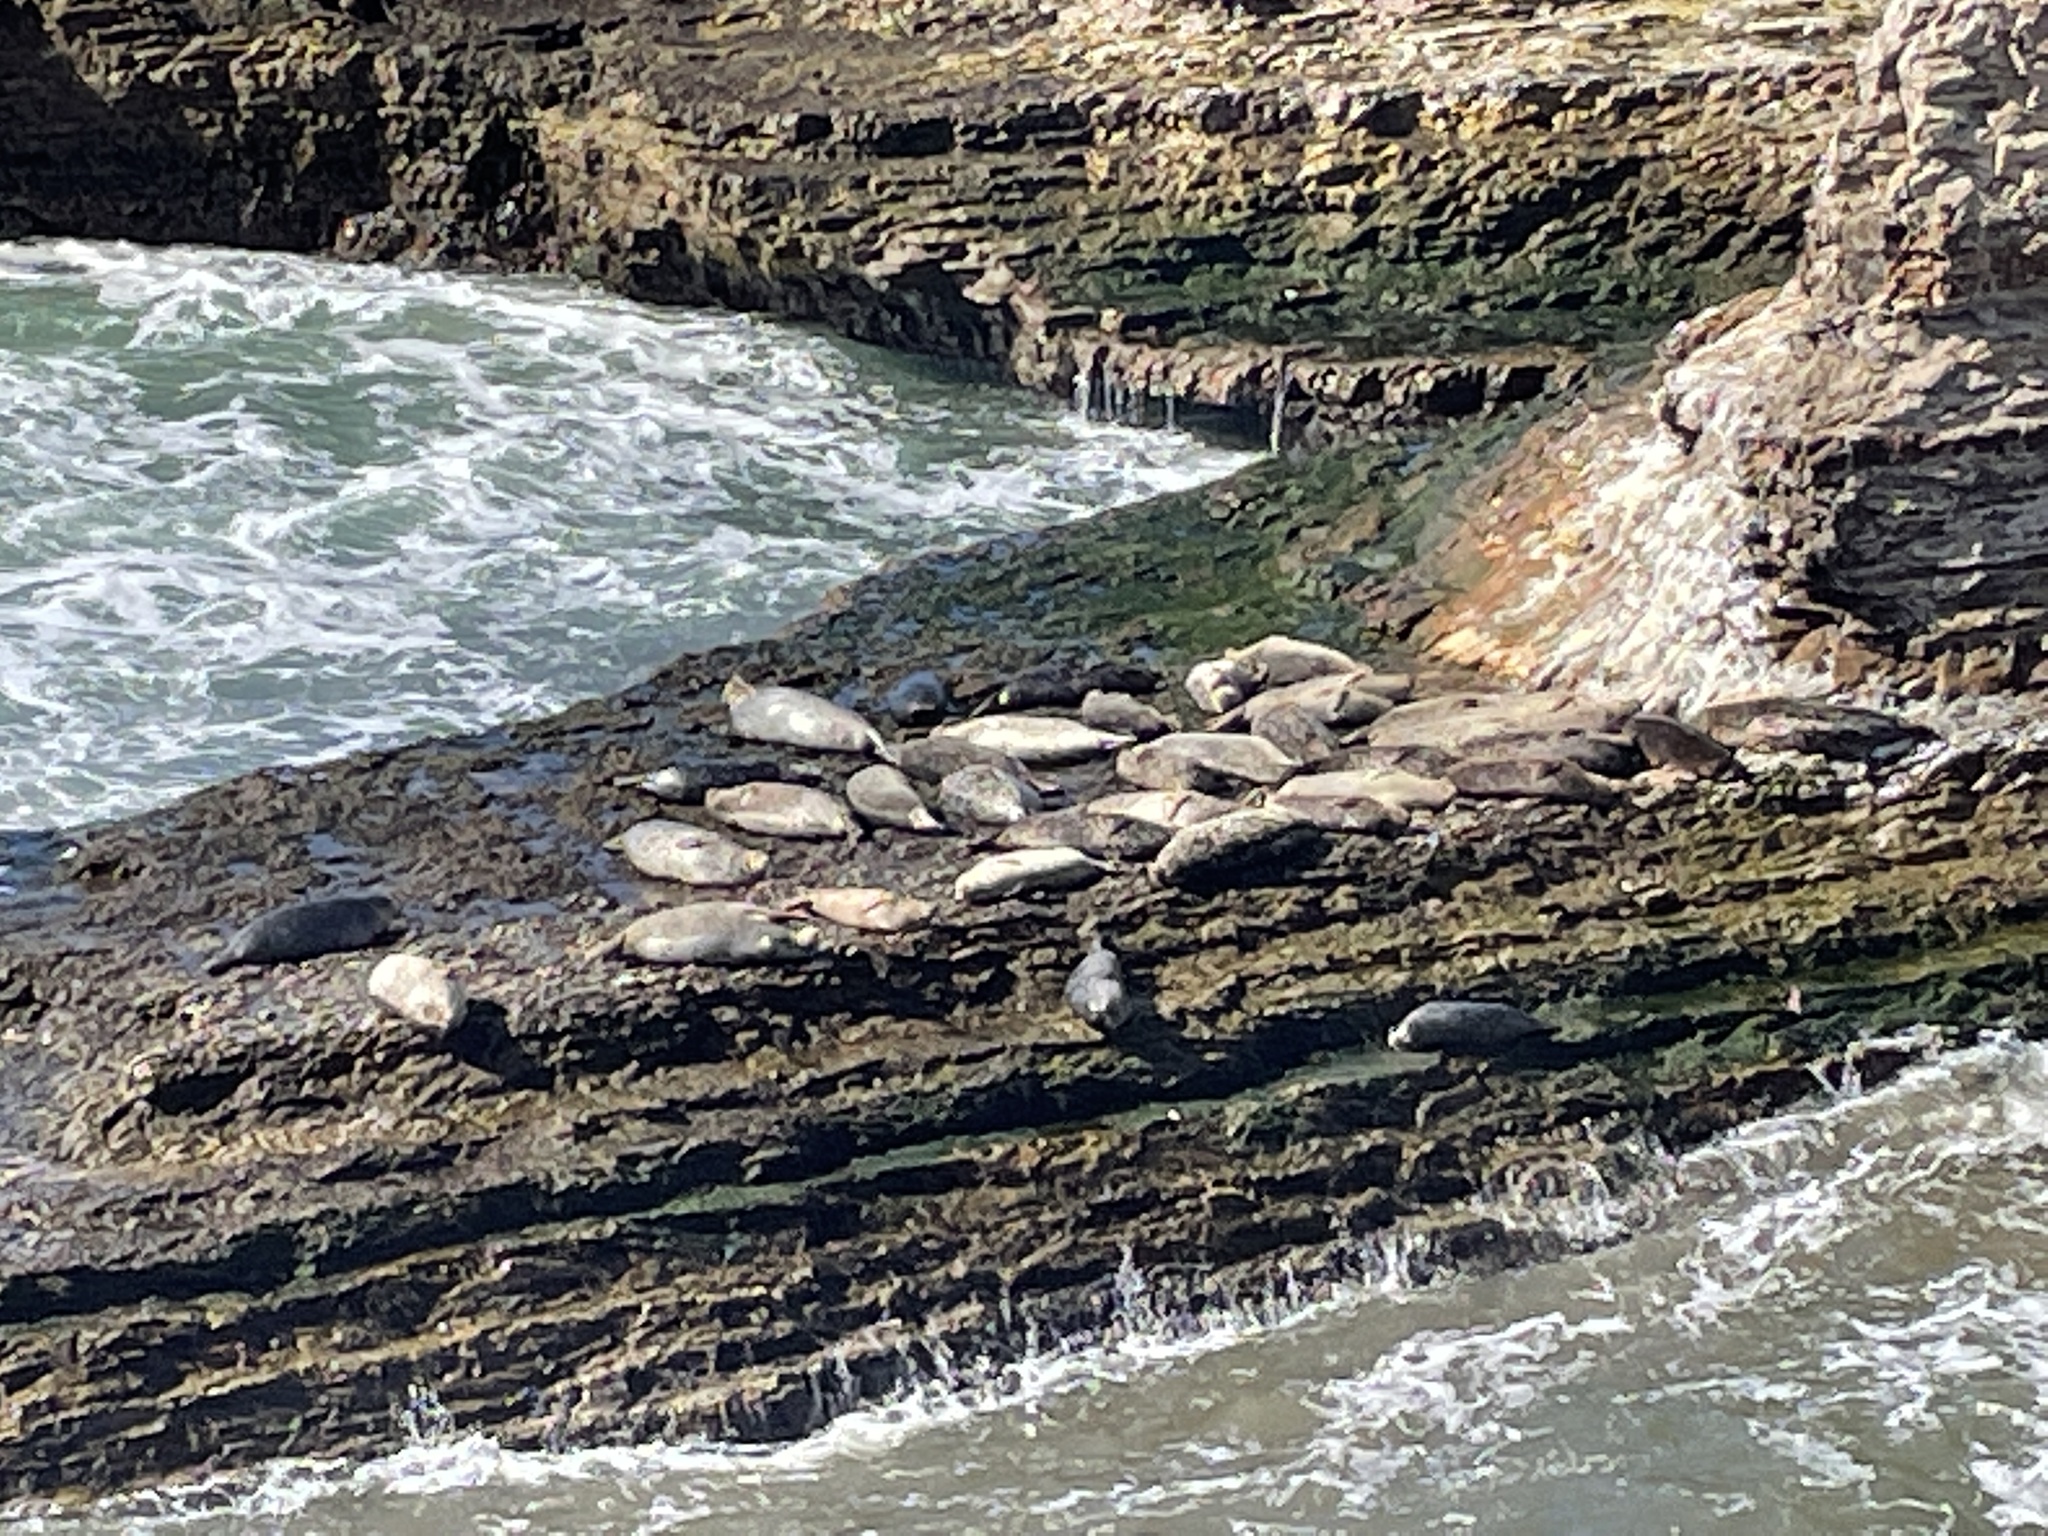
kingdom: Animalia
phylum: Chordata
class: Mammalia
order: Carnivora
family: Phocidae
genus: Phoca
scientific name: Phoca vitulina
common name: Harbor seal
